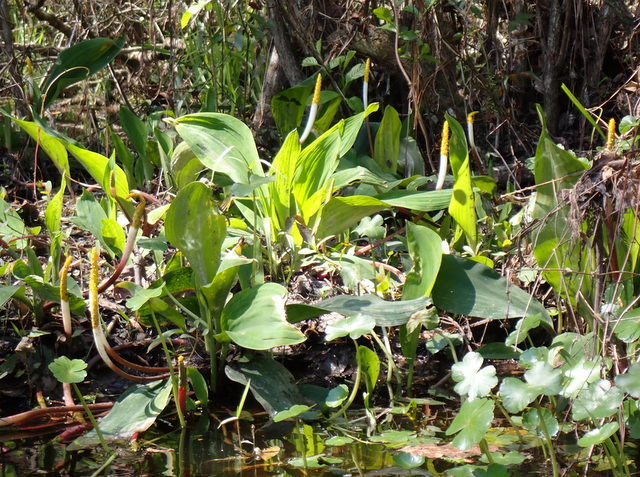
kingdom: Plantae
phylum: Tracheophyta
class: Liliopsida
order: Alismatales
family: Araceae
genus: Orontium
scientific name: Orontium aquaticum
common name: Golden-club
